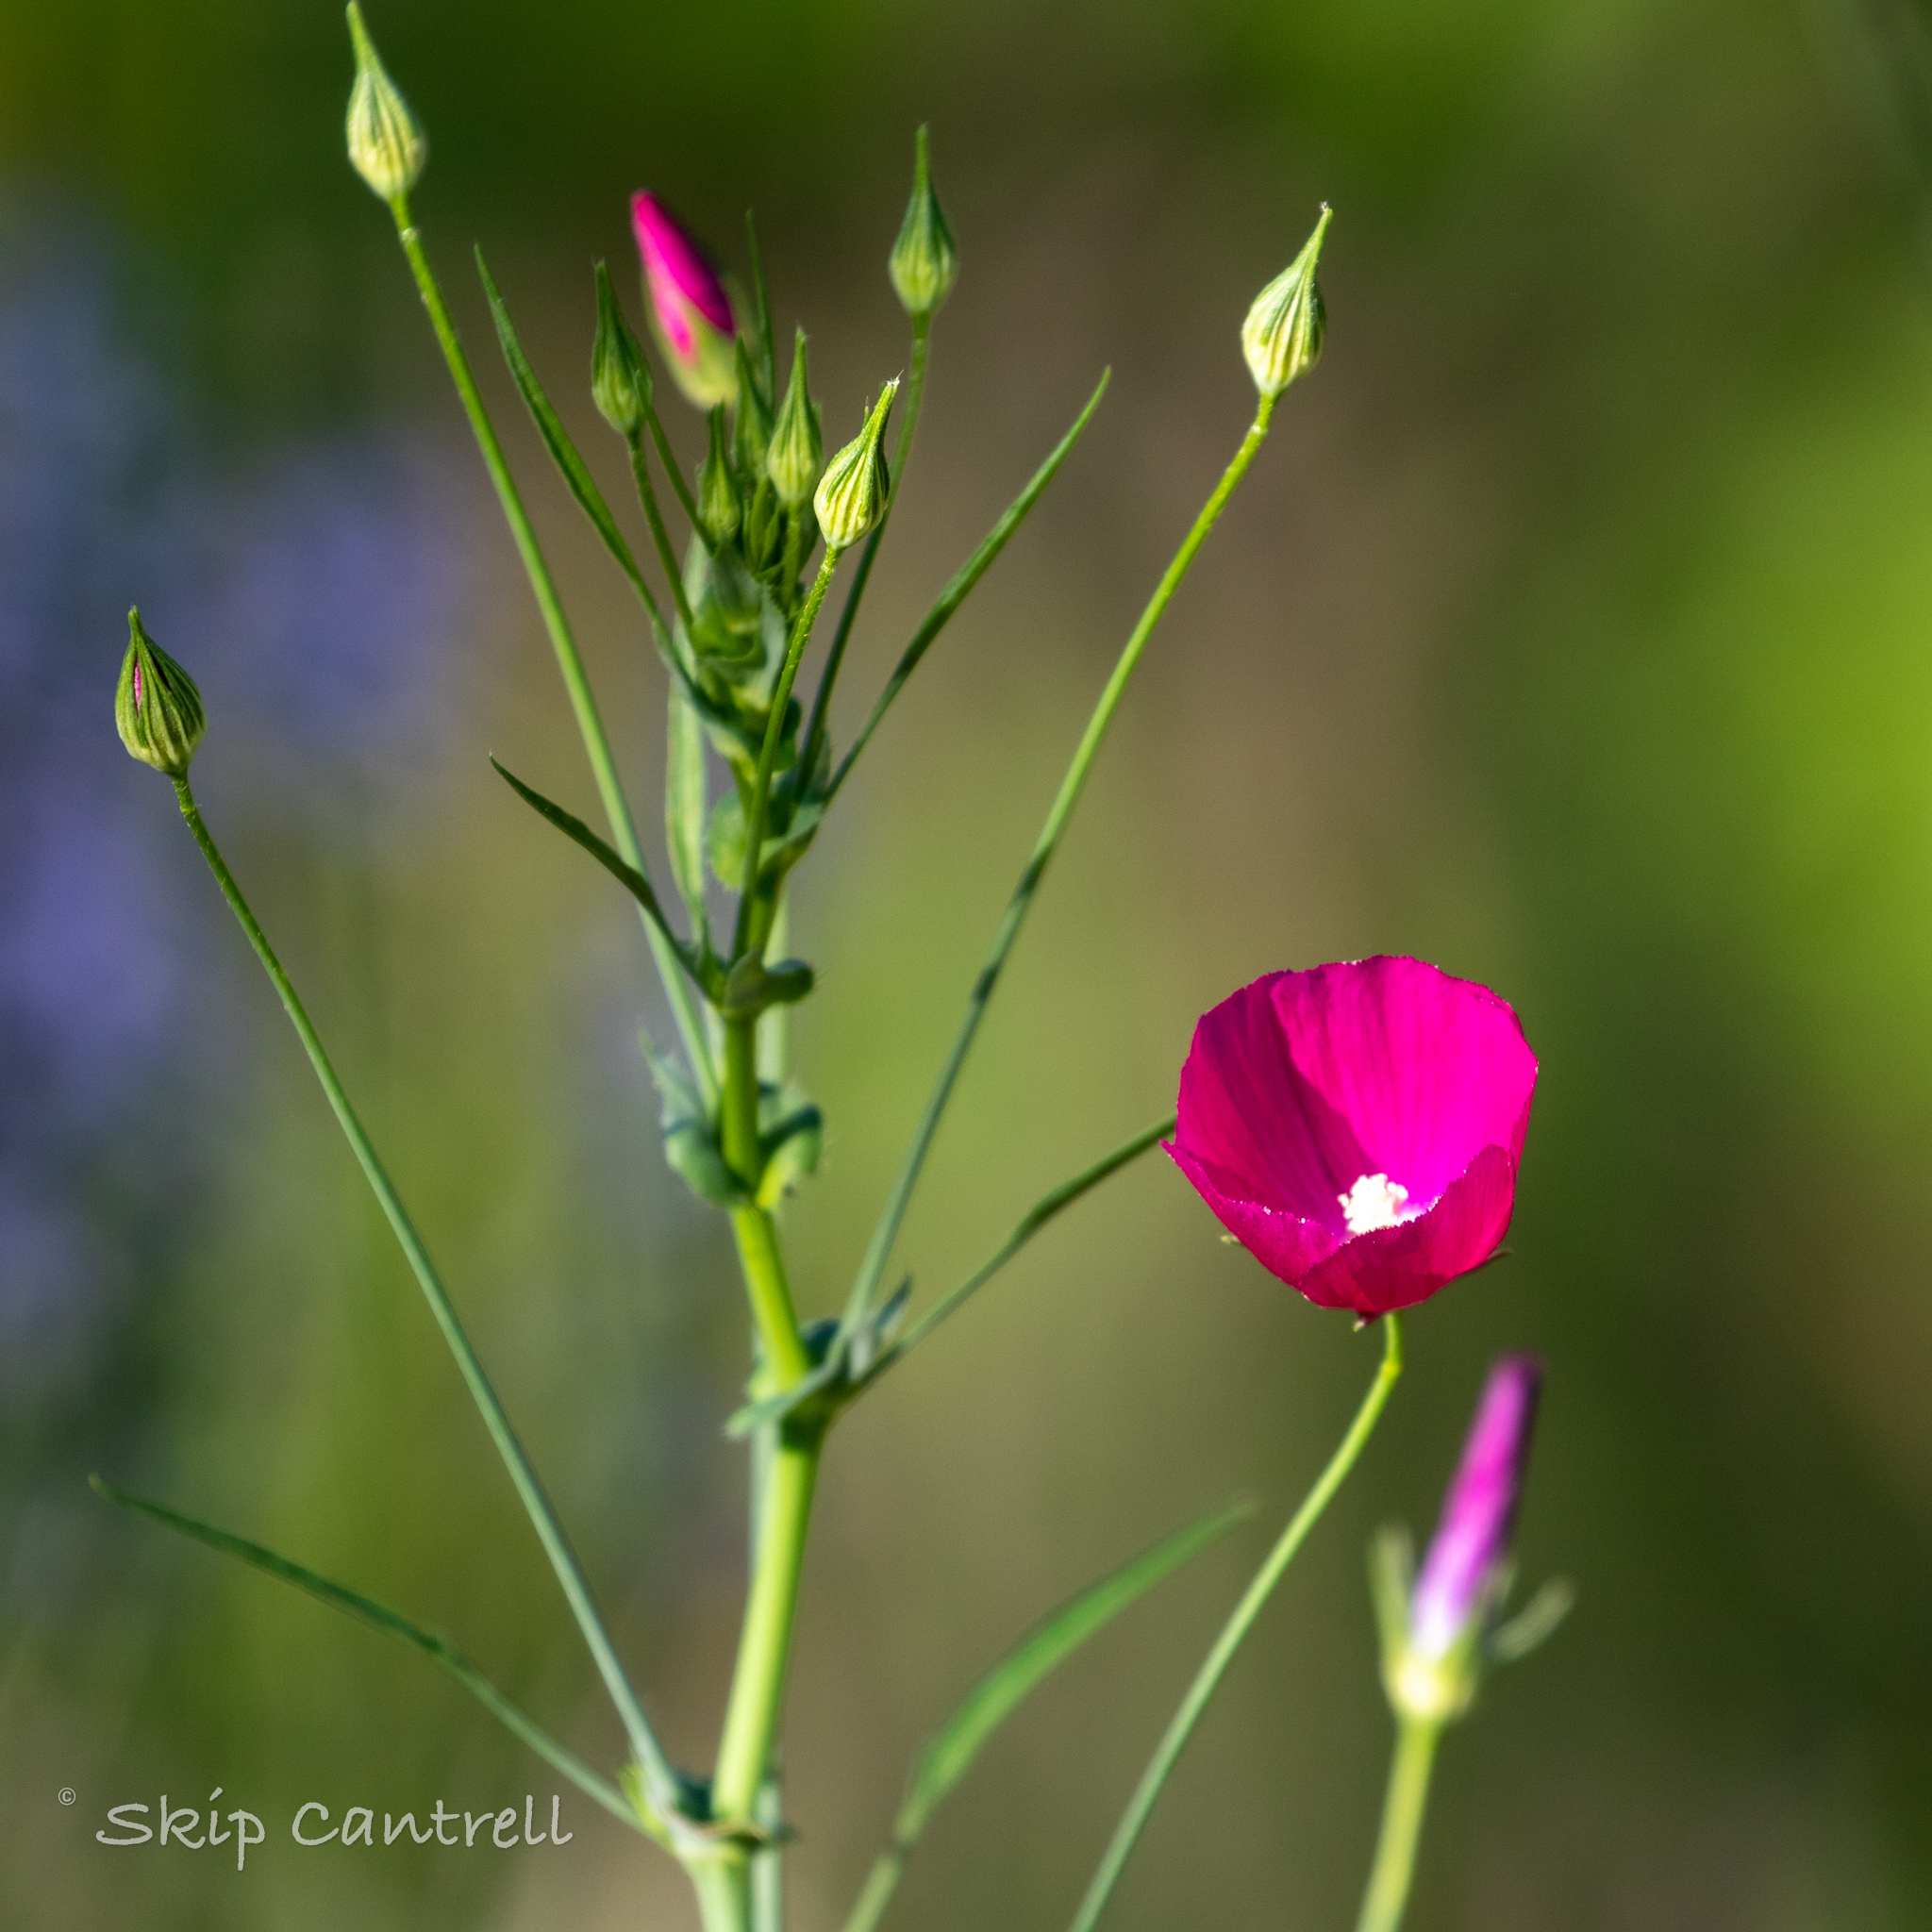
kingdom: Plantae
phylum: Tracheophyta
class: Magnoliopsida
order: Malvales
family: Malvaceae
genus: Callirhoe
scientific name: Callirhoe leiocarpa
